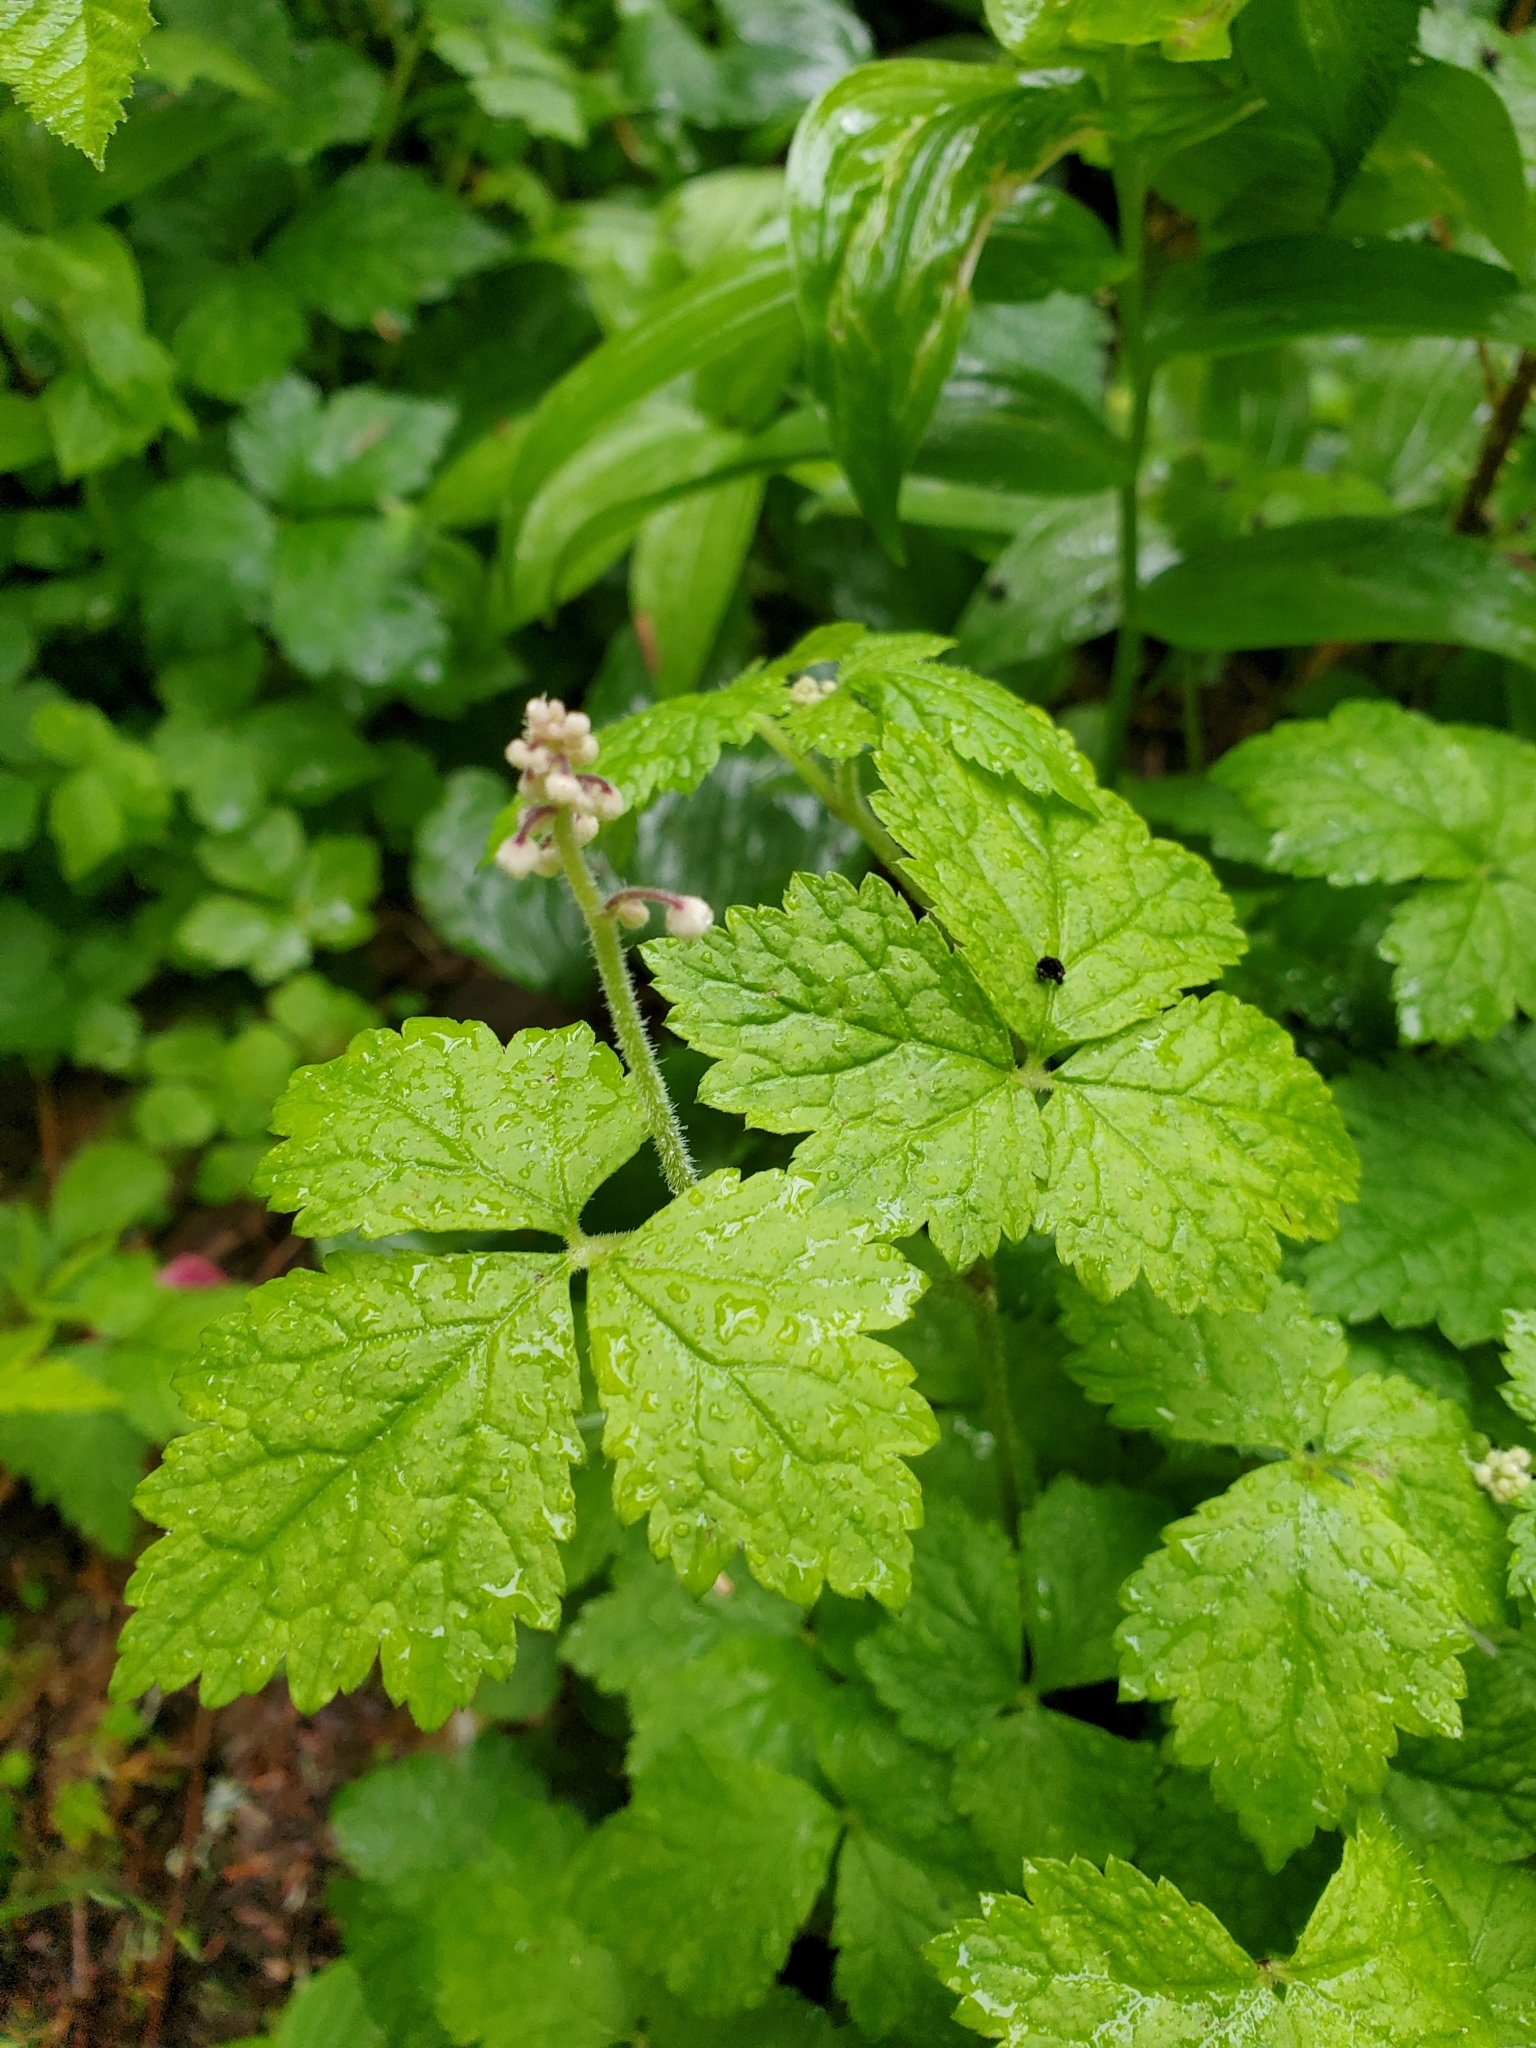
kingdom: Plantae
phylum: Tracheophyta
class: Magnoliopsida
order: Saxifragales
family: Saxifragaceae
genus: Tiarella
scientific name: Tiarella trifoliata
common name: Sugar-scoop
